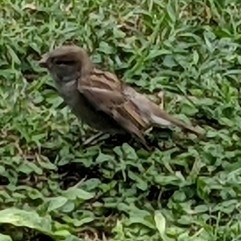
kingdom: Animalia
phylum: Chordata
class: Aves
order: Passeriformes
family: Passeridae
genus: Passer
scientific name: Passer domesticus
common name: House sparrow
